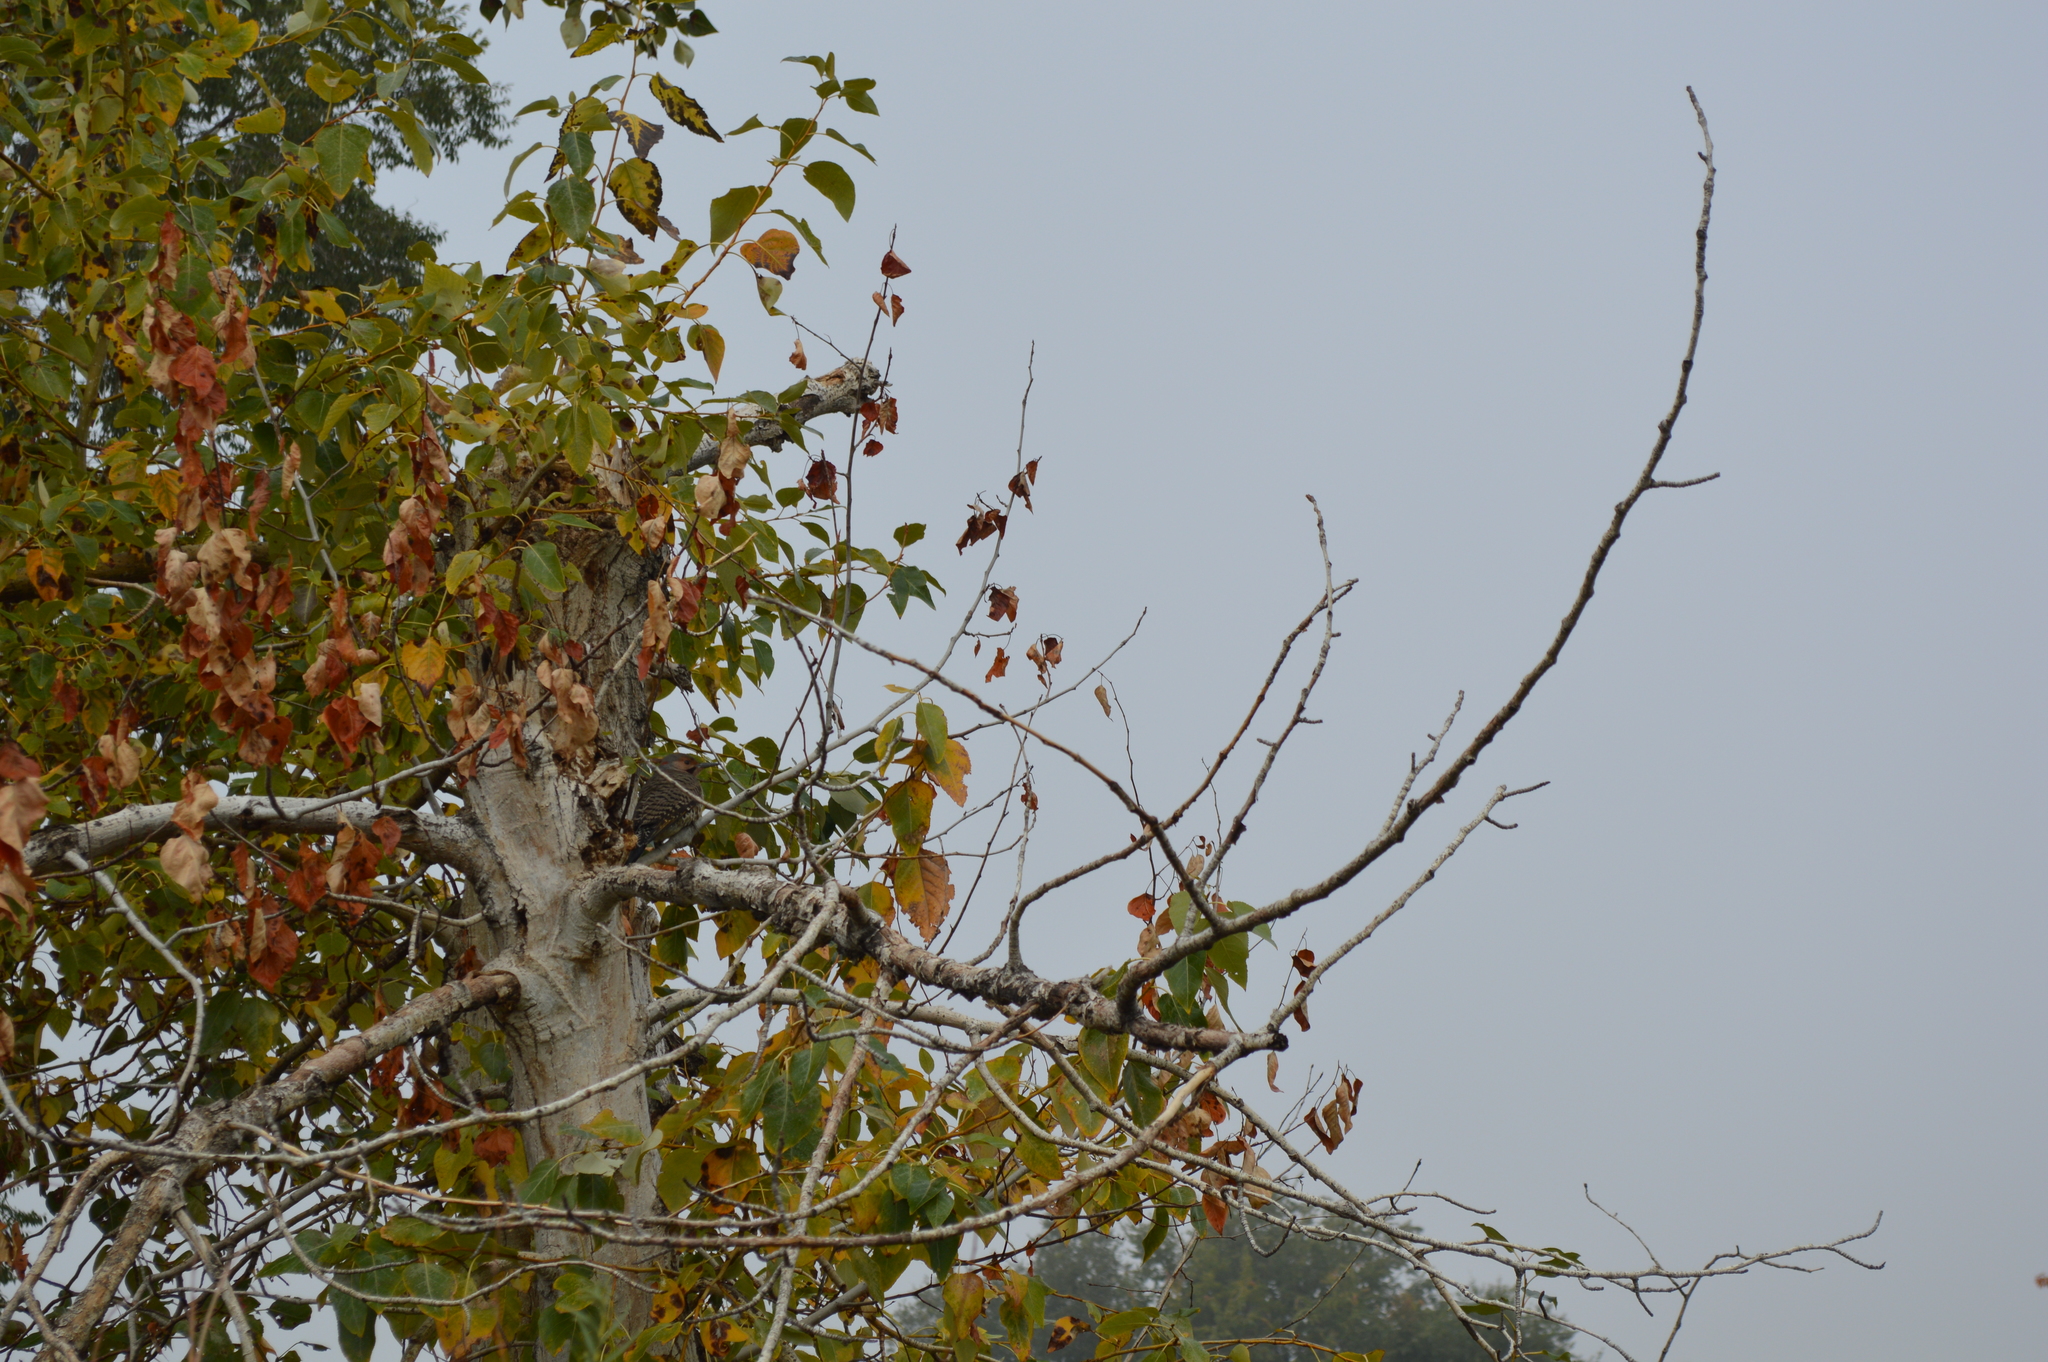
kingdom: Animalia
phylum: Chordata
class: Aves
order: Piciformes
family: Picidae
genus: Colaptes
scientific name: Colaptes auratus
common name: Northern flicker
